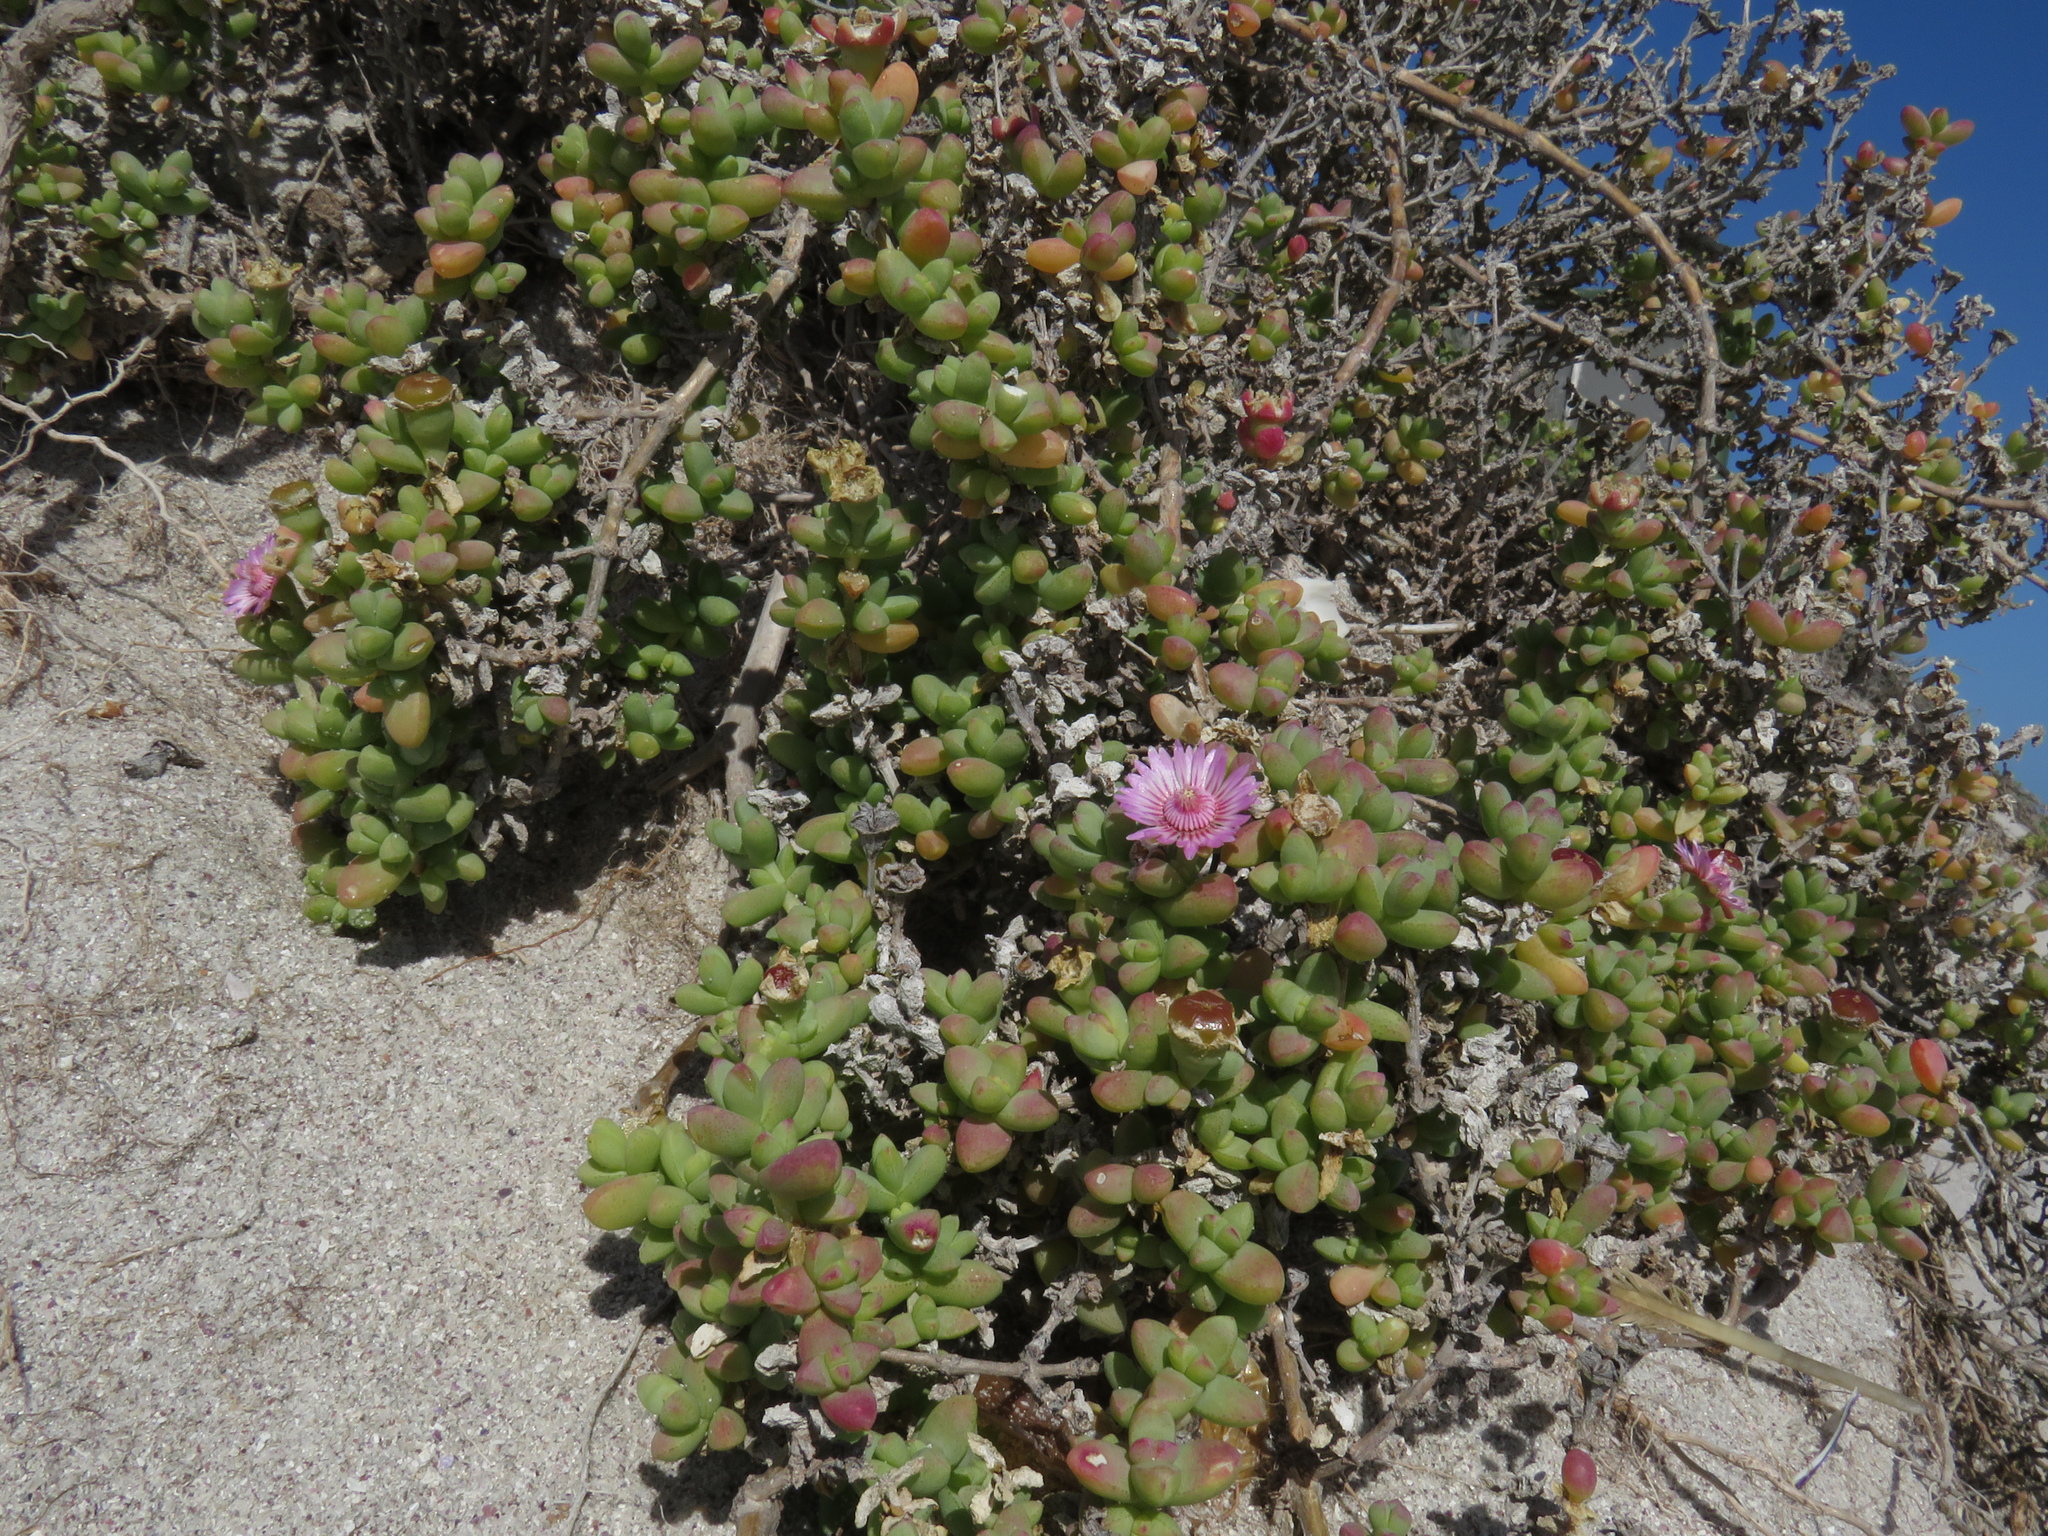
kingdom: Plantae
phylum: Tracheophyta
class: Magnoliopsida
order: Caryophyllales
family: Aizoaceae
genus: Amphibolia
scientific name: Amphibolia laevis
